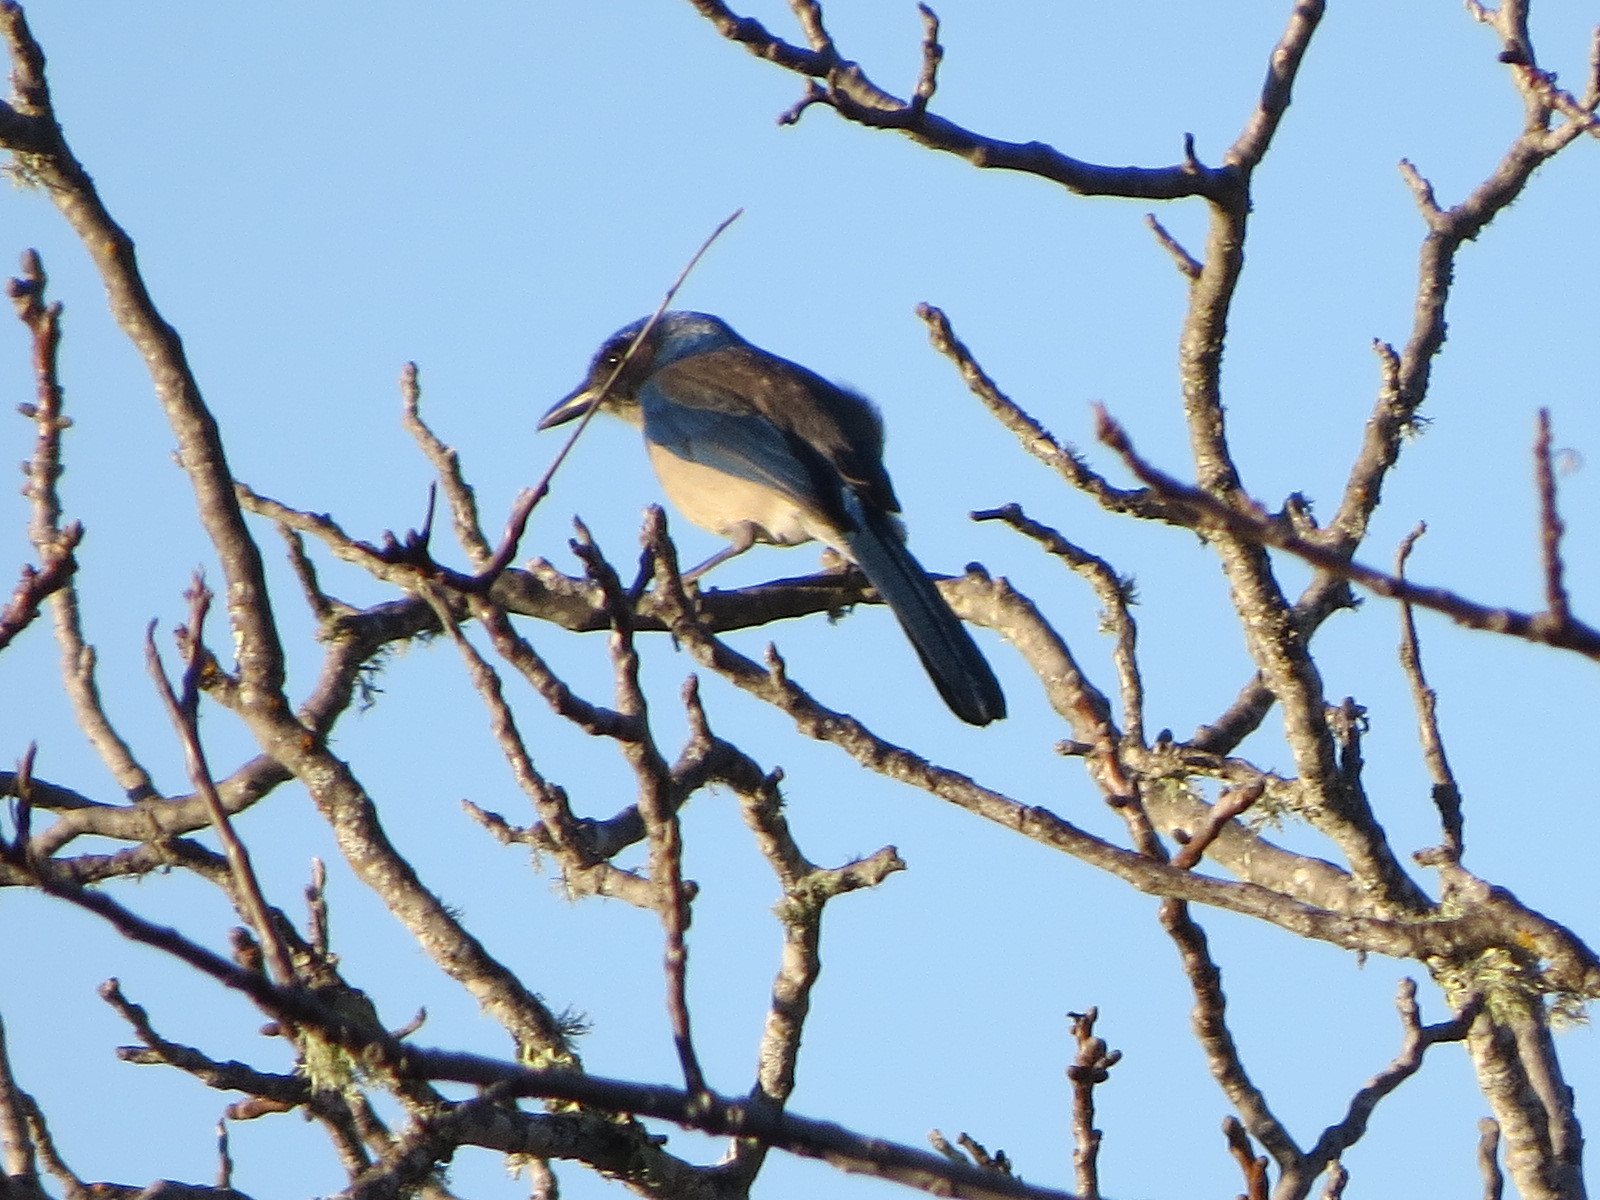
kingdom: Animalia
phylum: Chordata
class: Aves
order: Passeriformes
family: Corvidae
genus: Aphelocoma
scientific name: Aphelocoma californica
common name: California scrub-jay
